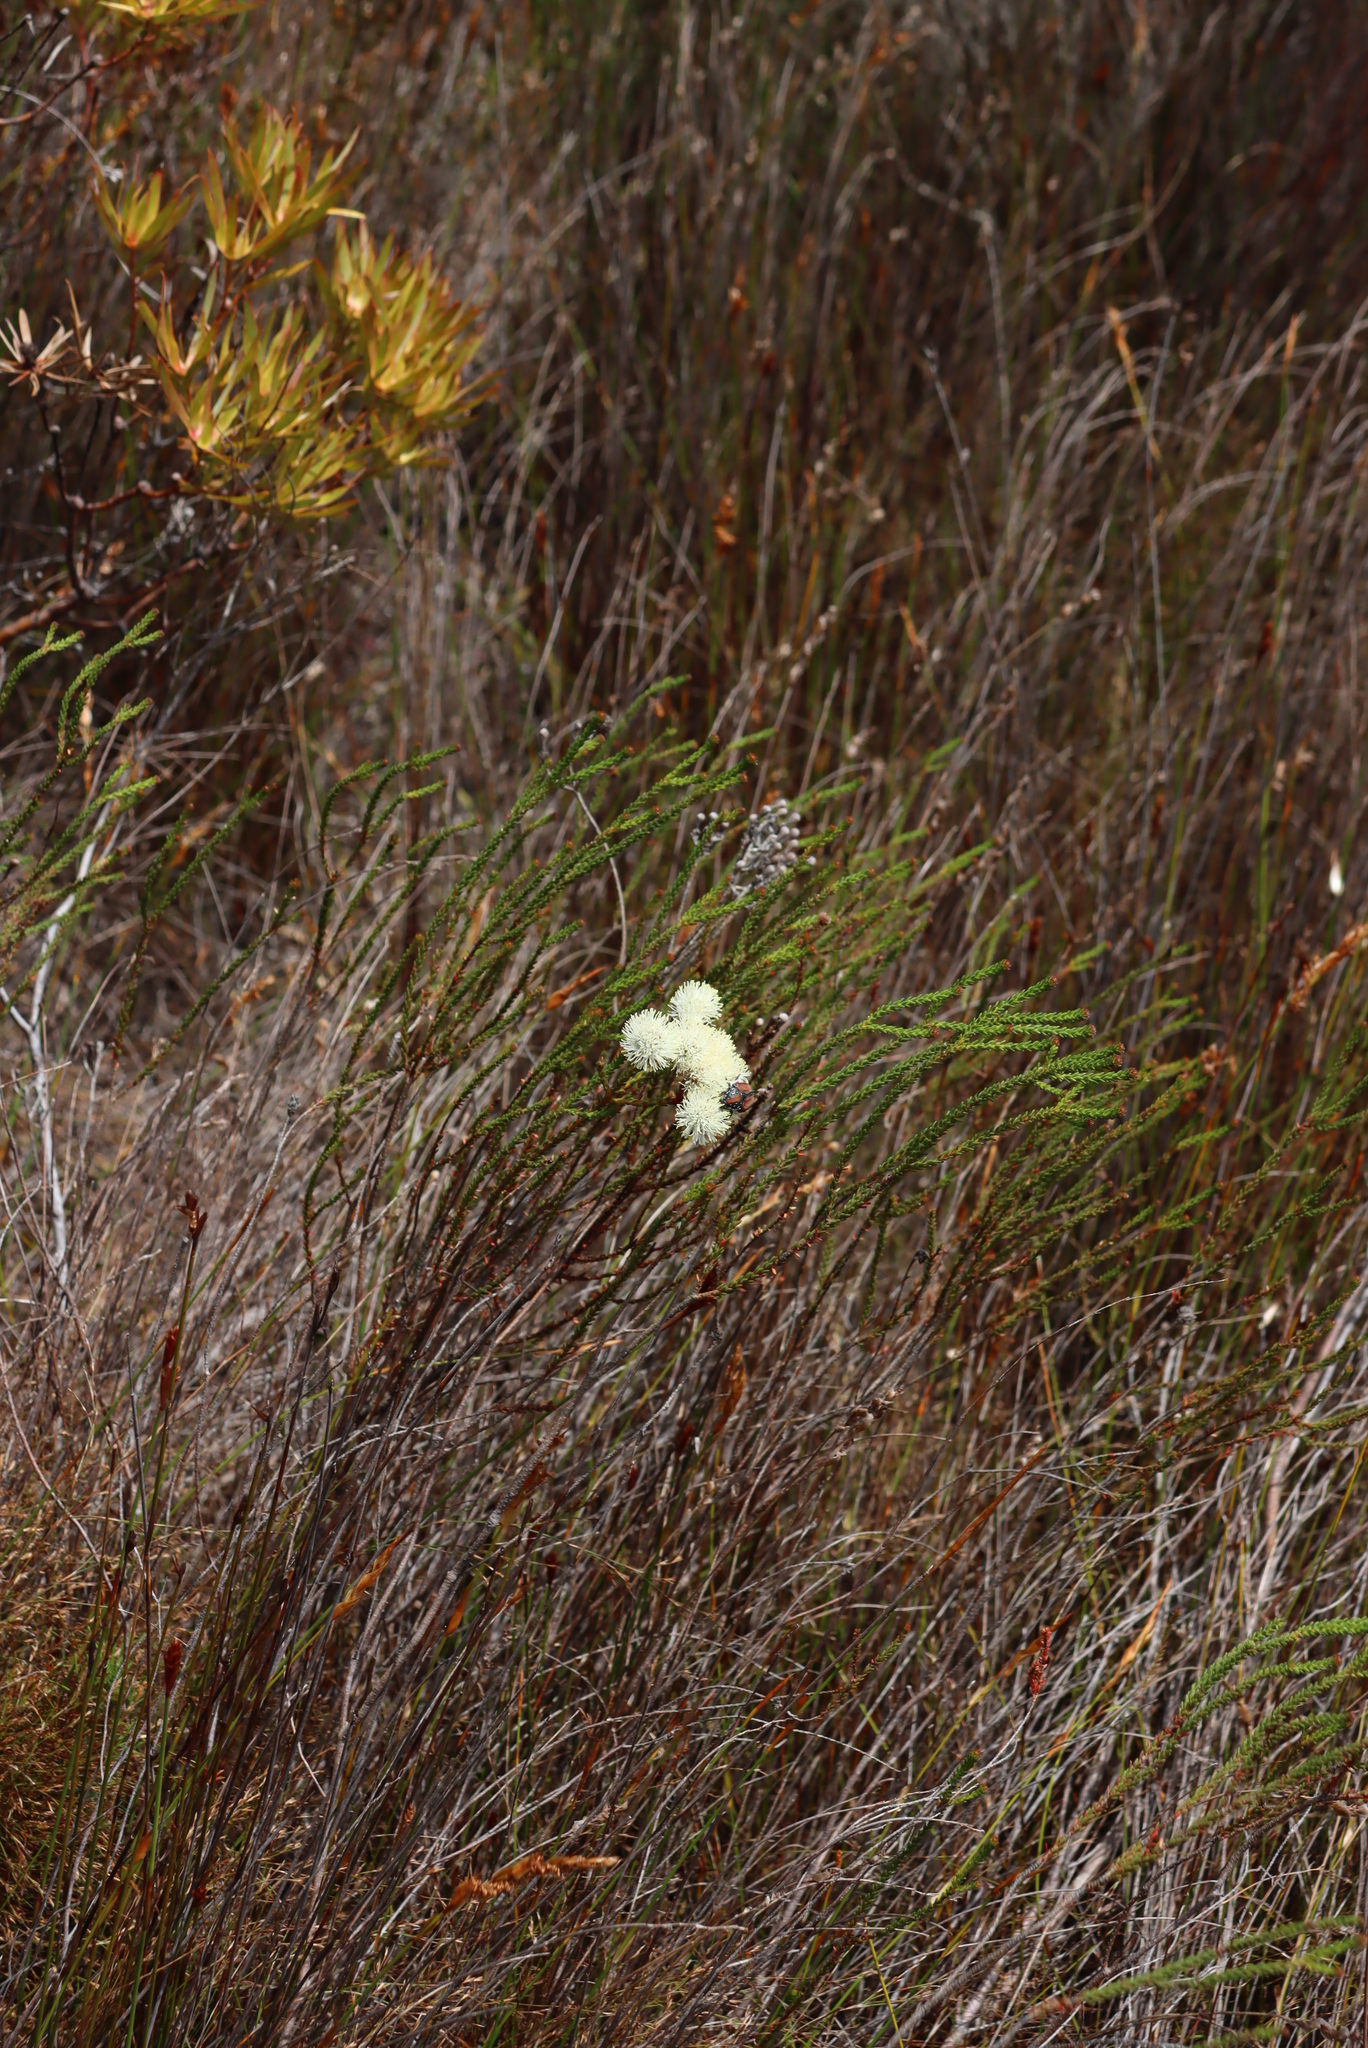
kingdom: Animalia
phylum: Arthropoda
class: Insecta
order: Coleoptera
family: Scarabaeidae
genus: Trichostetha
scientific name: Trichostetha capensis
